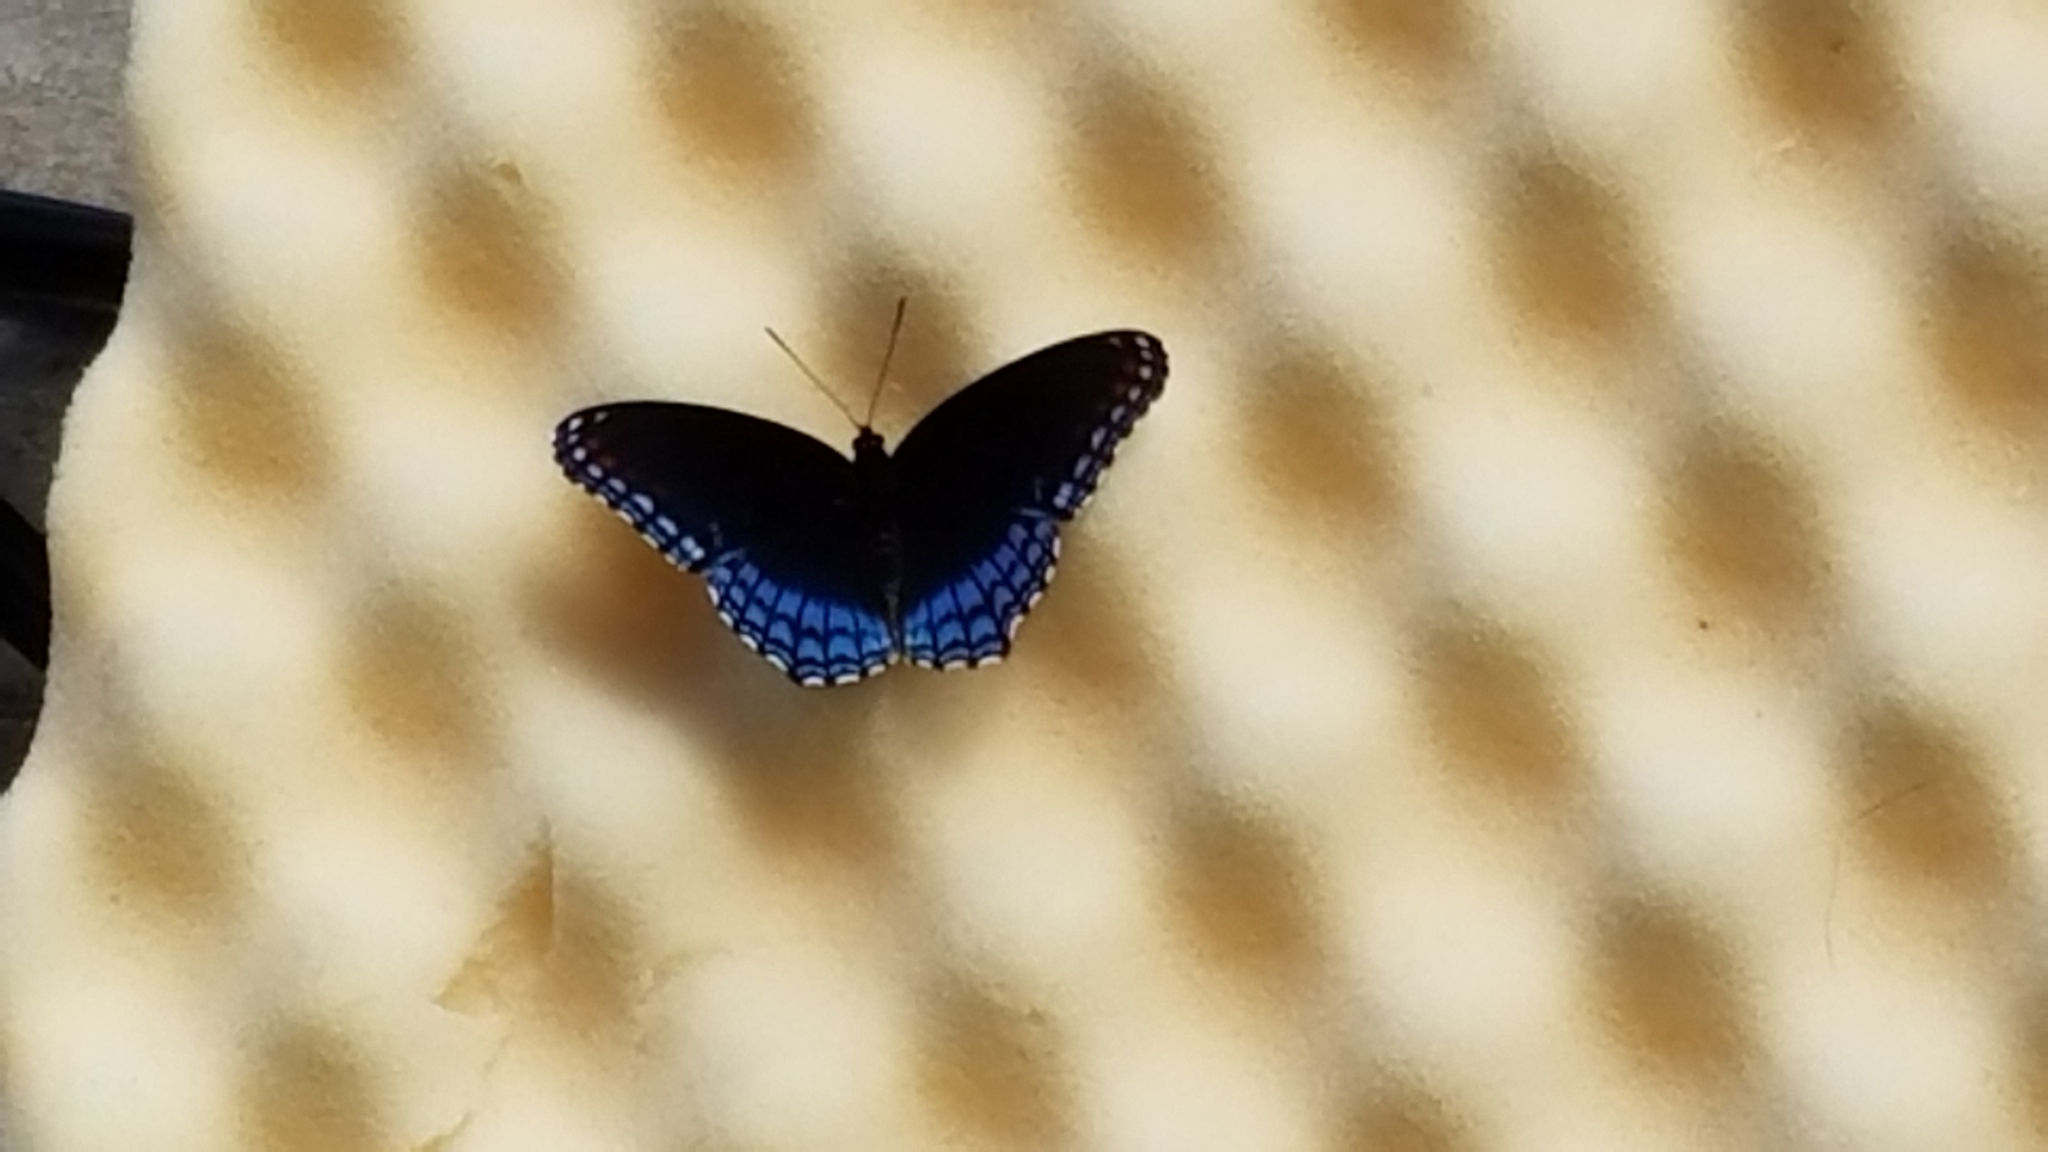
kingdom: Animalia
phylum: Arthropoda
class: Insecta
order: Lepidoptera
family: Nymphalidae
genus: Limenitis
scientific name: Limenitis astyanax
